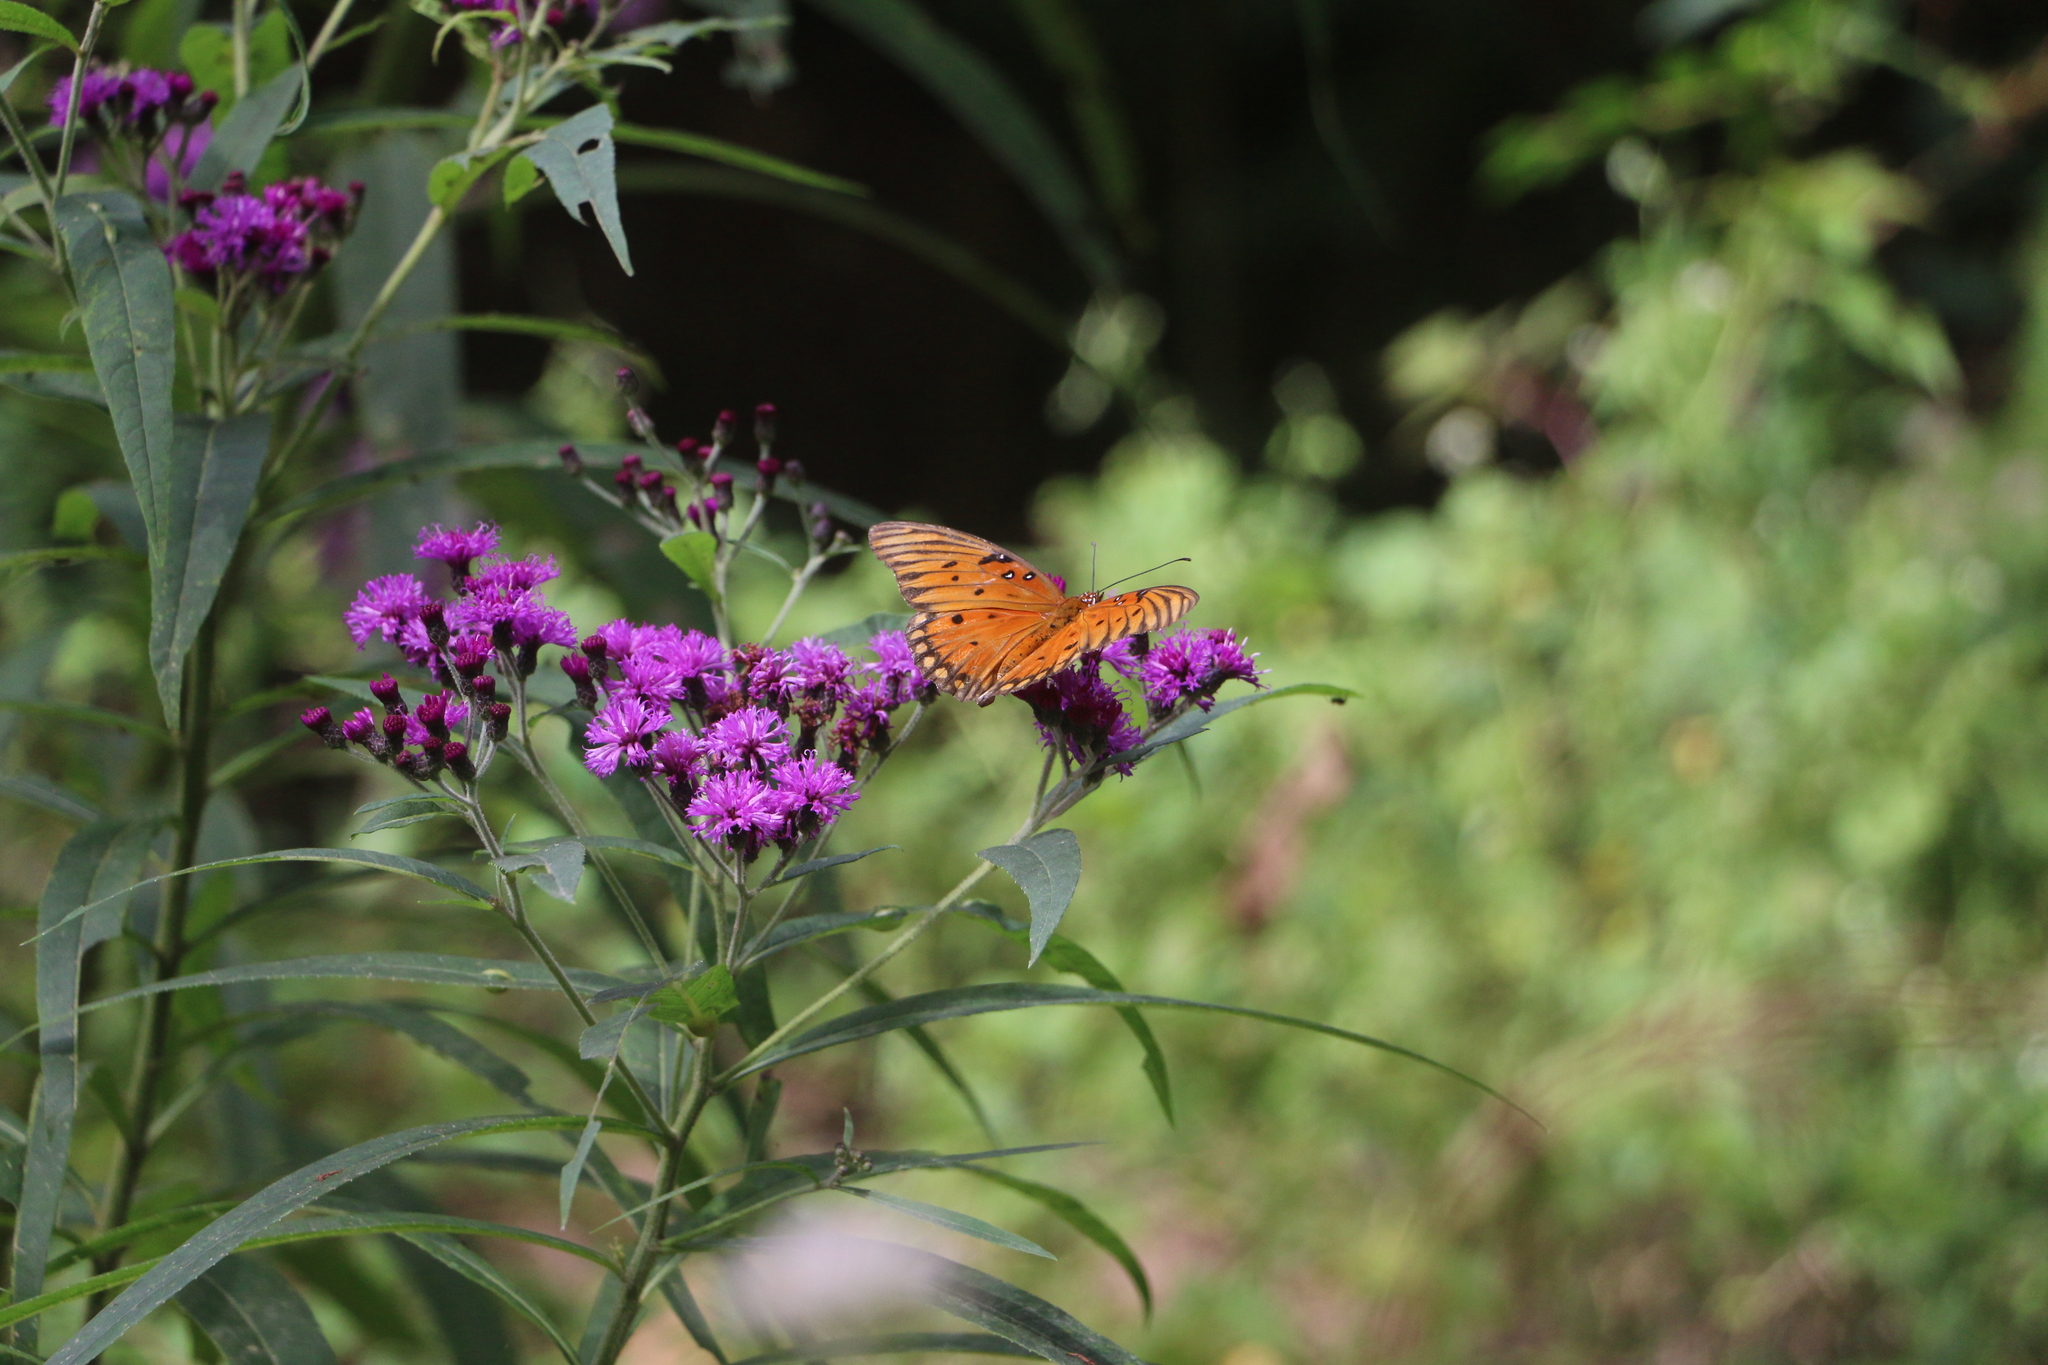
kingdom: Animalia
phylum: Arthropoda
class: Insecta
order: Lepidoptera
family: Nymphalidae
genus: Dione
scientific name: Dione vanillae
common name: Gulf fritillary
